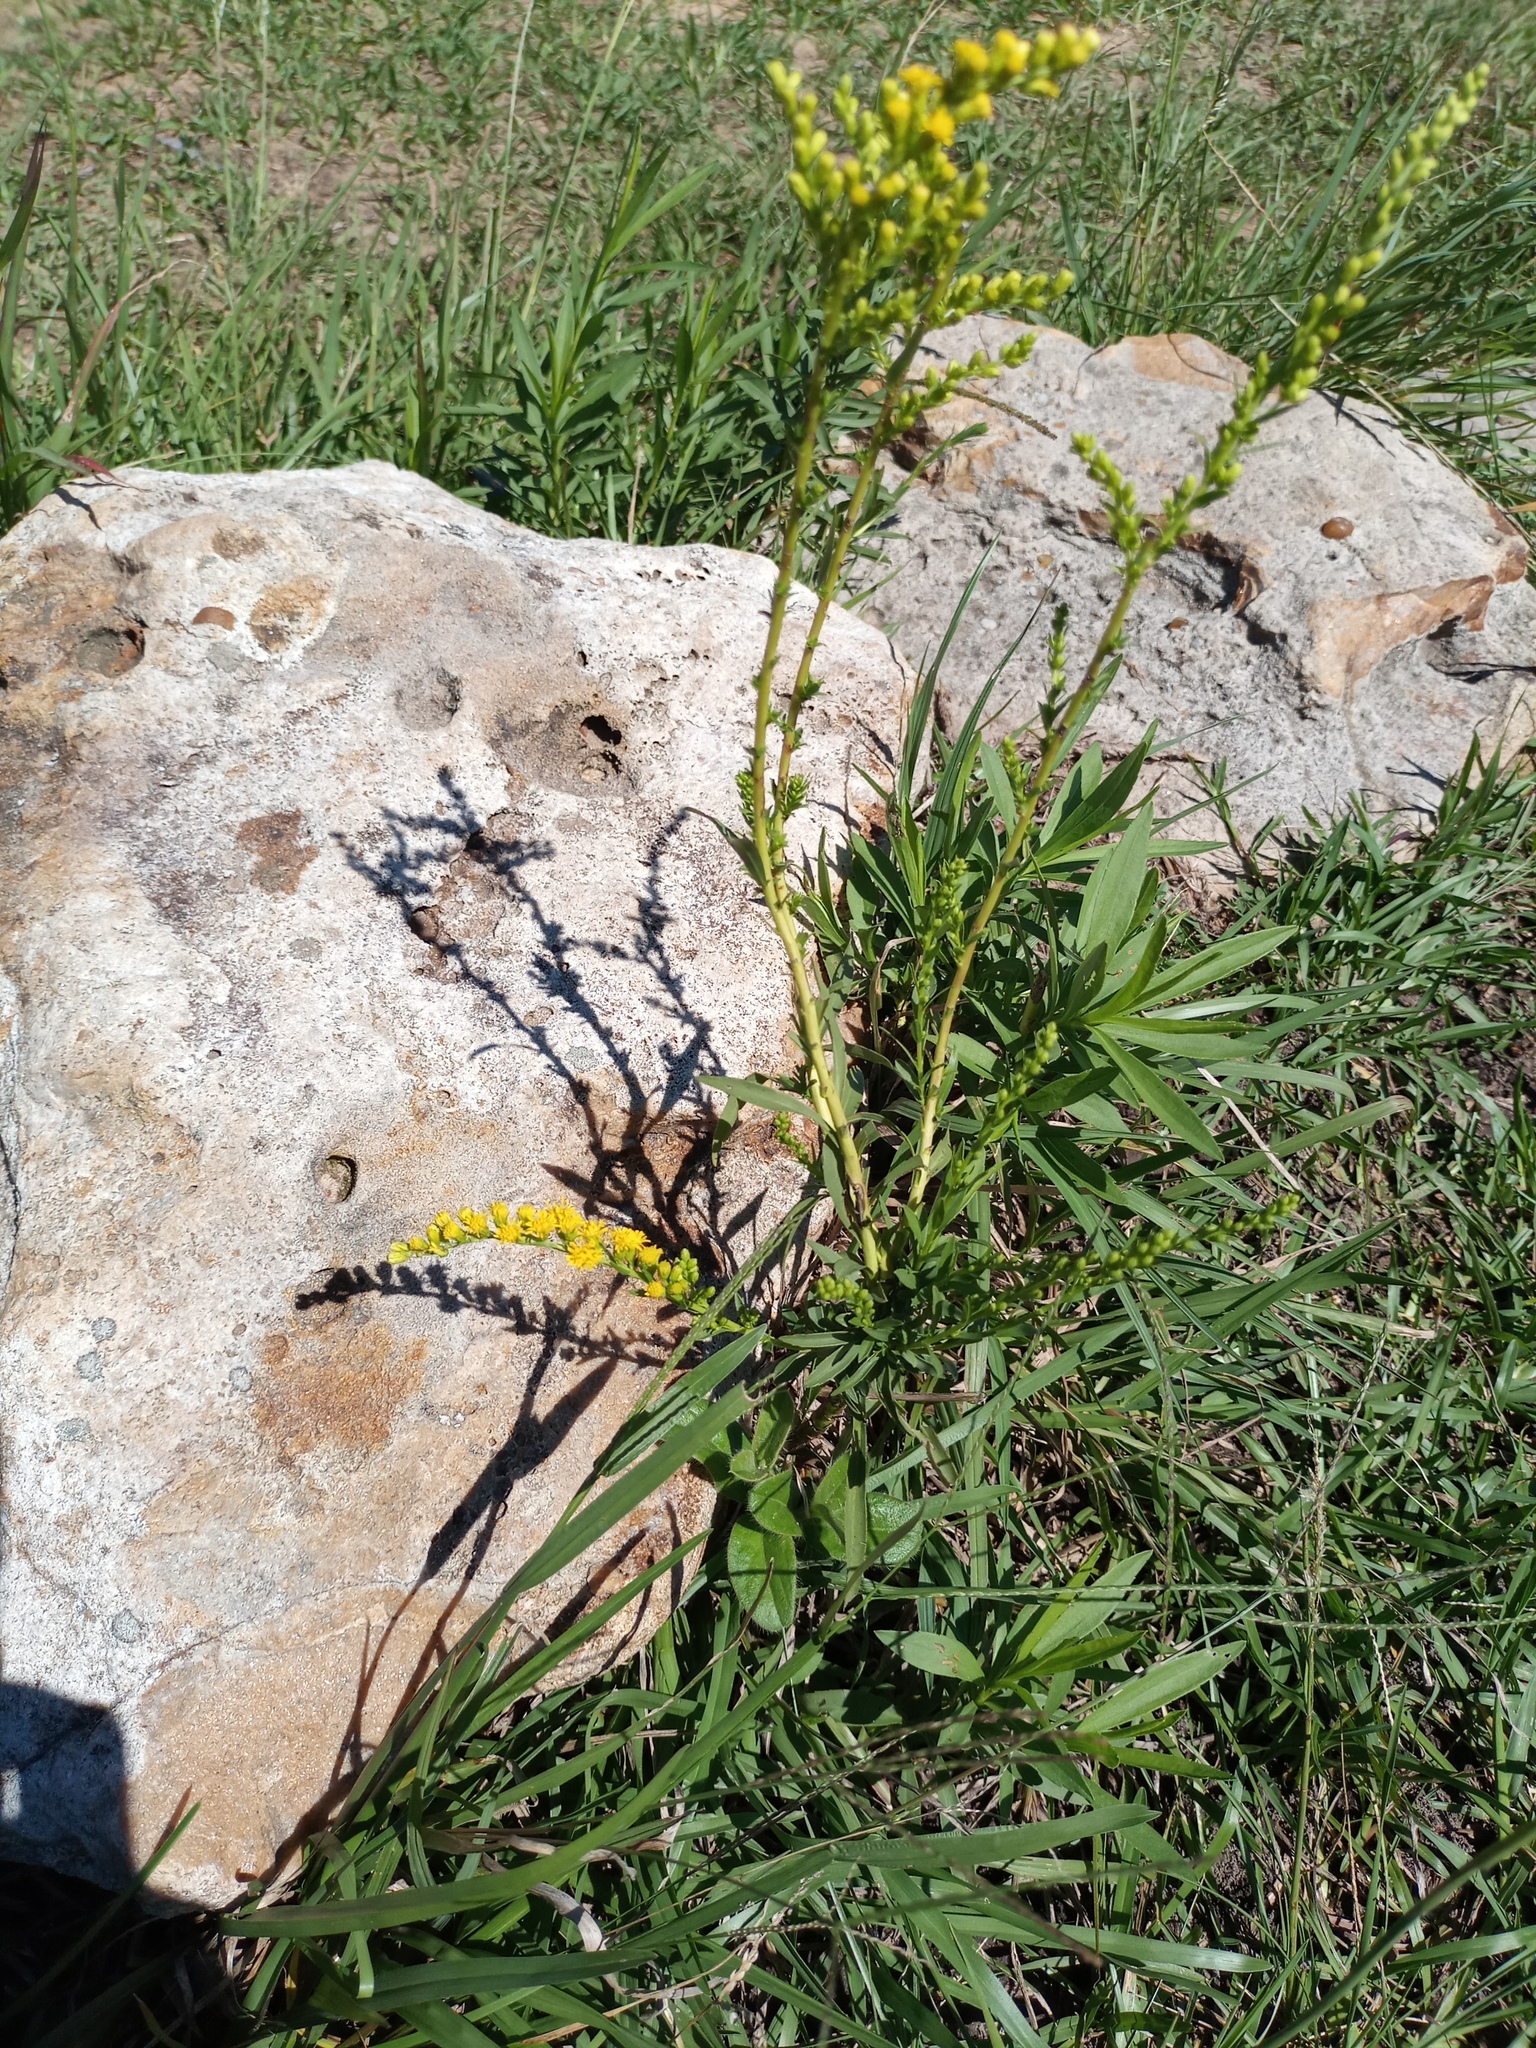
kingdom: Plantae
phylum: Tracheophyta
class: Magnoliopsida
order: Asterales
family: Asteraceae
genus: Solidago
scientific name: Solidago chilensis
